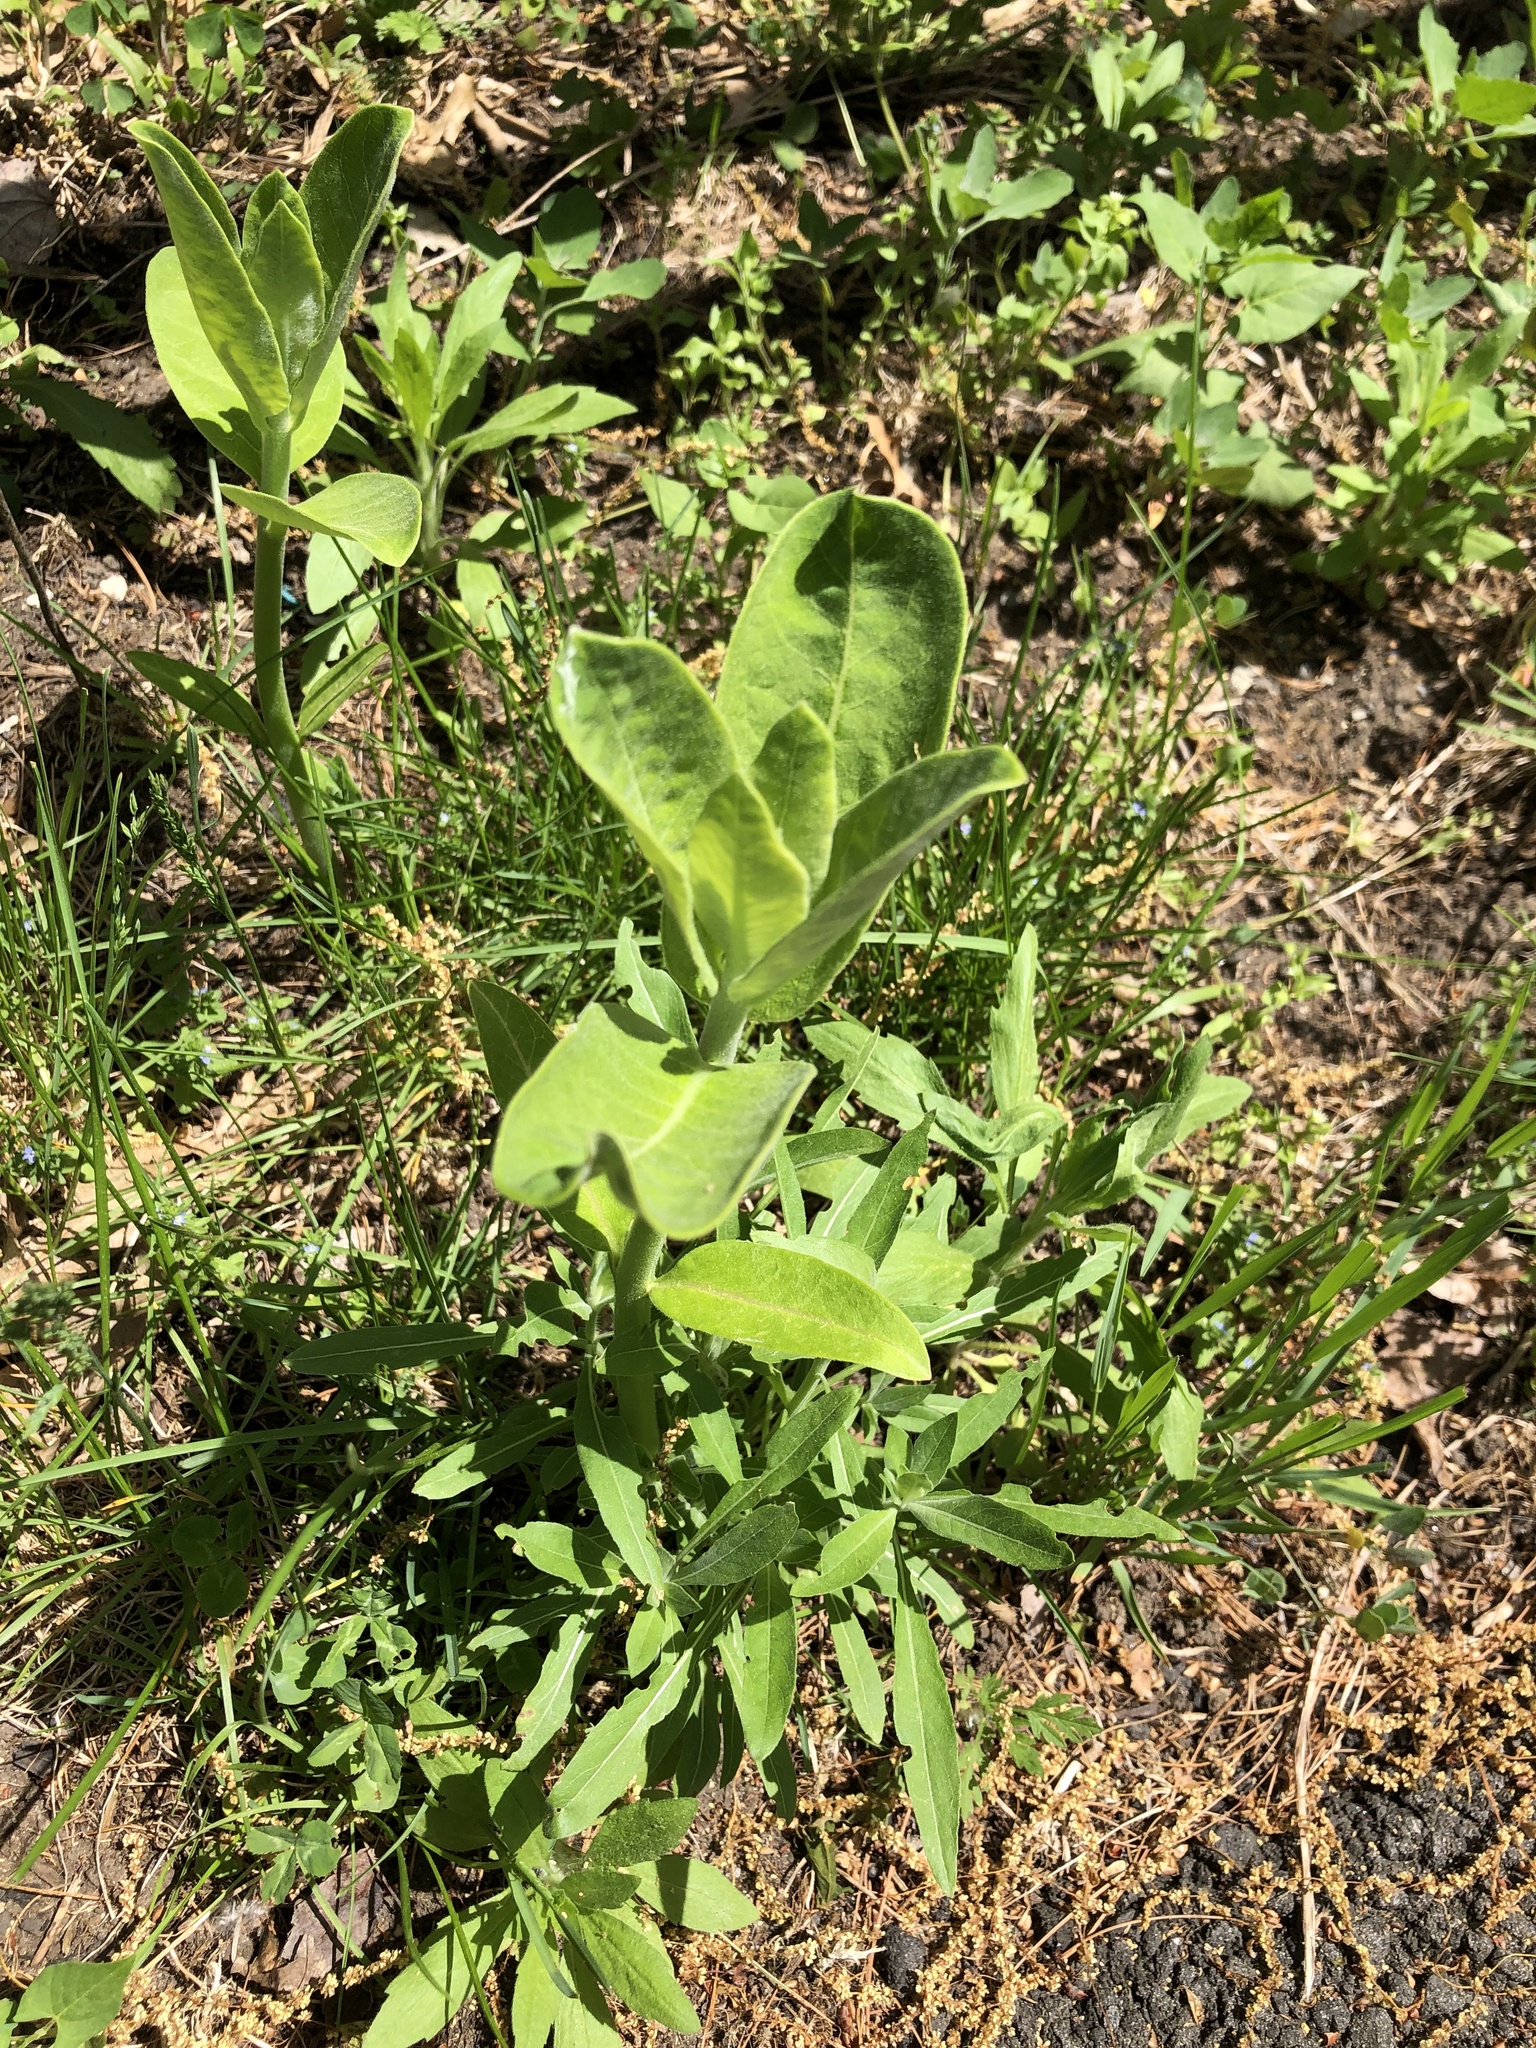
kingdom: Plantae
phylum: Tracheophyta
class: Magnoliopsida
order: Gentianales
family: Apocynaceae
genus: Asclepias
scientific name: Asclepias syriaca
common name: Common milkweed
